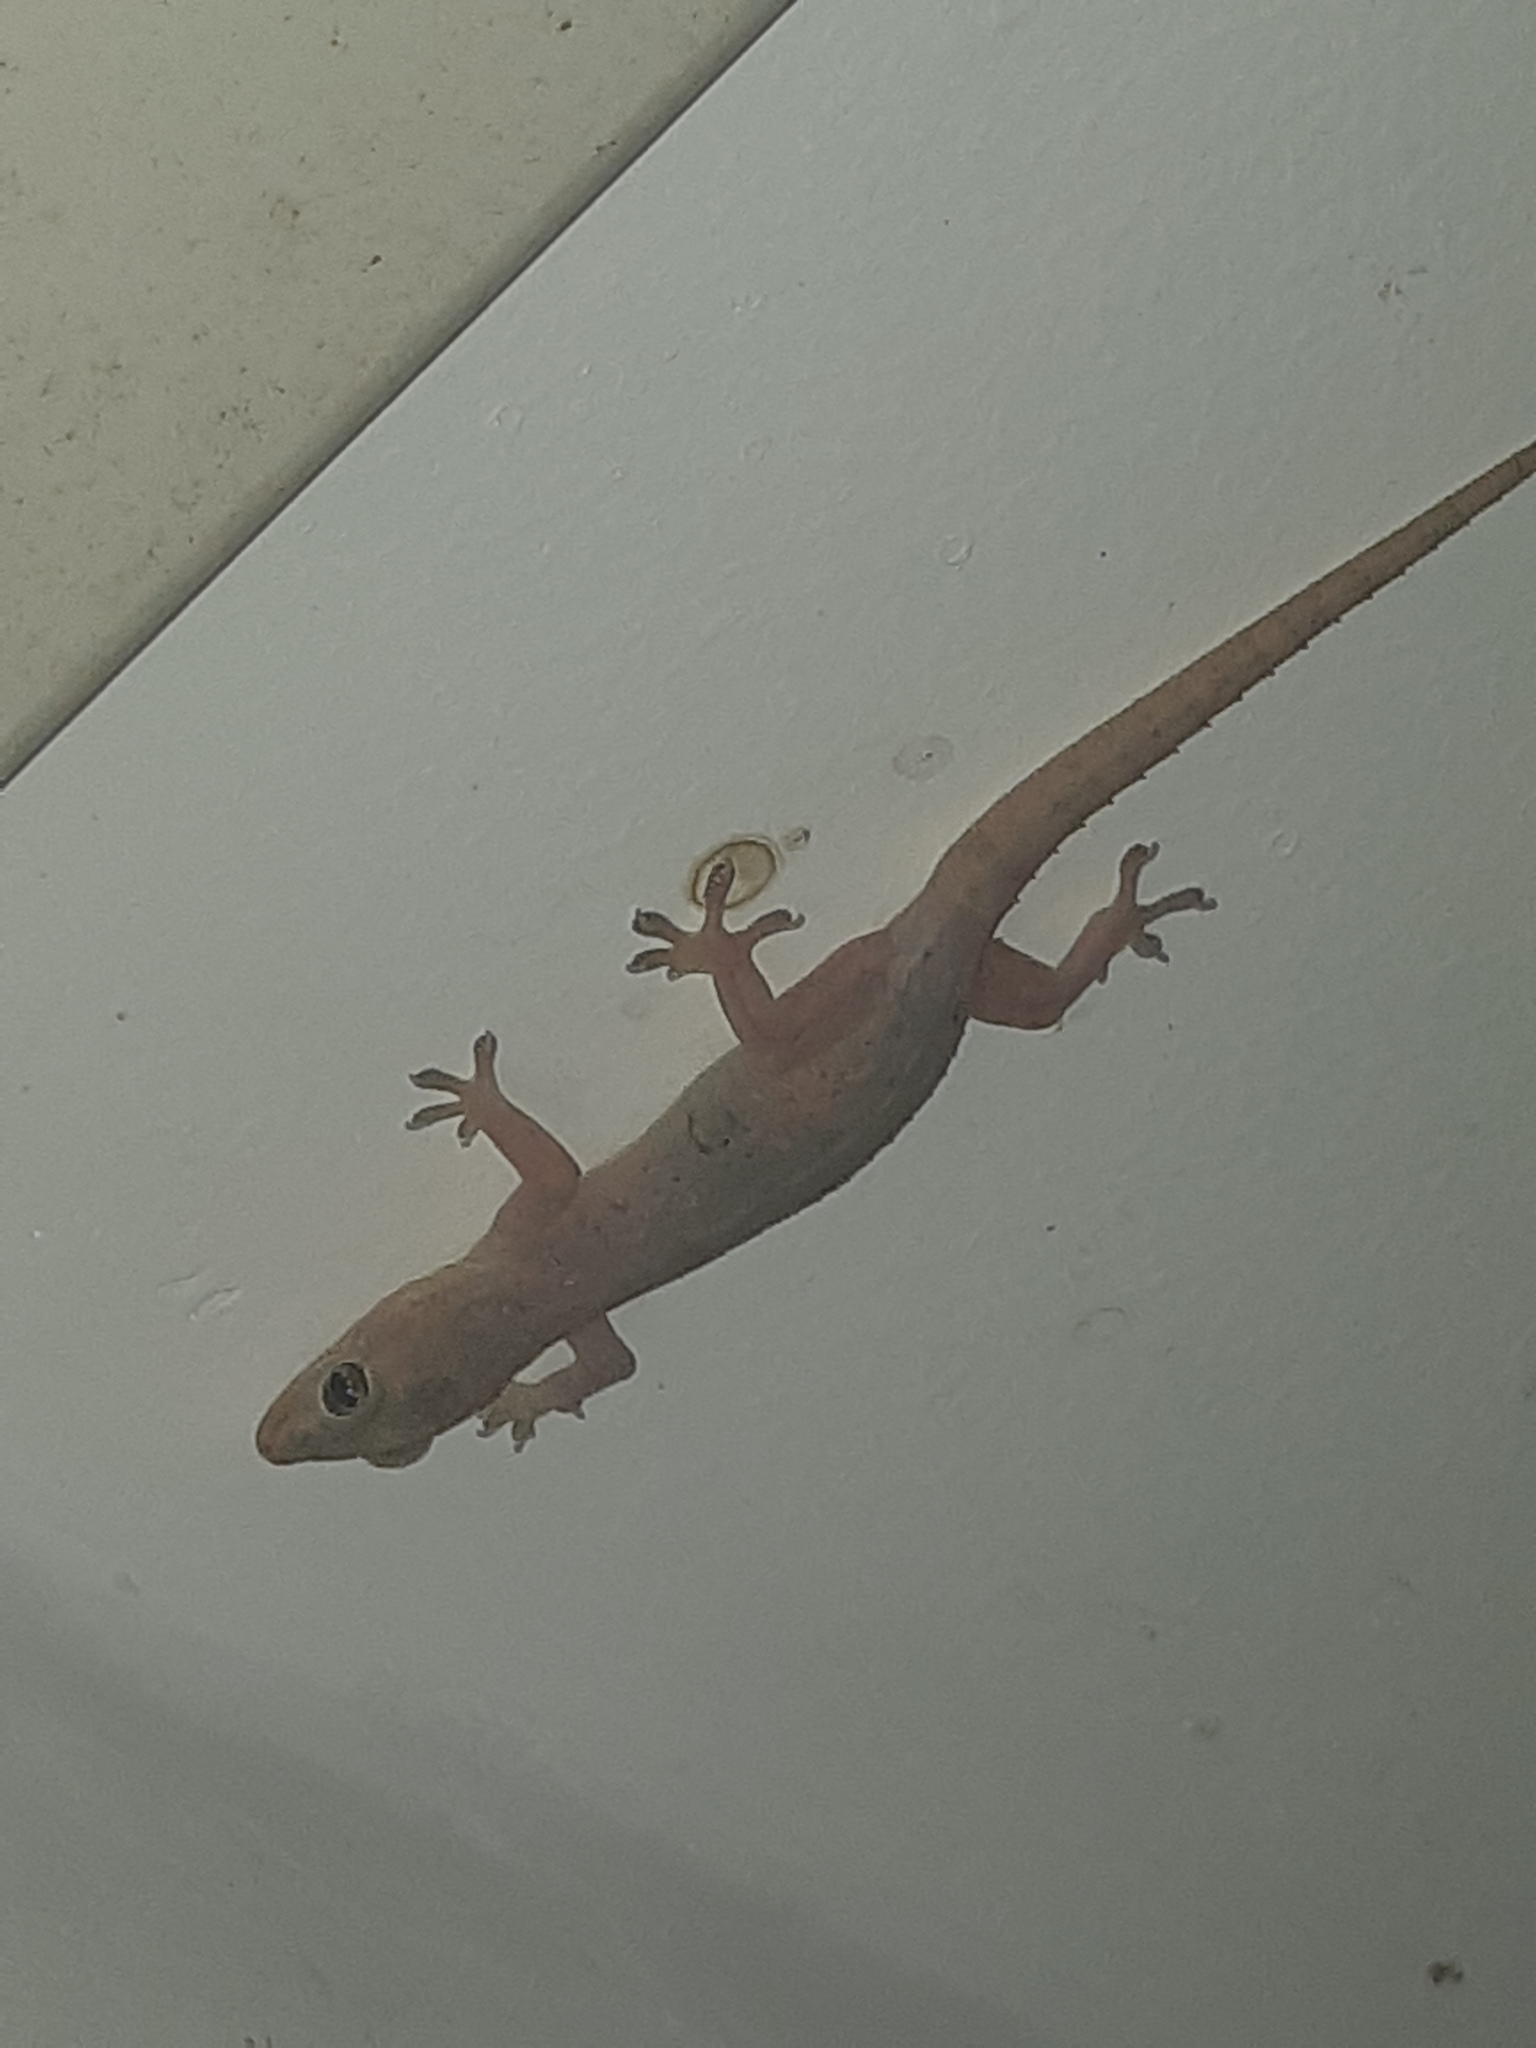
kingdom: Animalia
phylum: Chordata
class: Squamata
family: Gekkonidae
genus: Hemidactylus
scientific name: Hemidactylus frenatus
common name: Common house gecko
